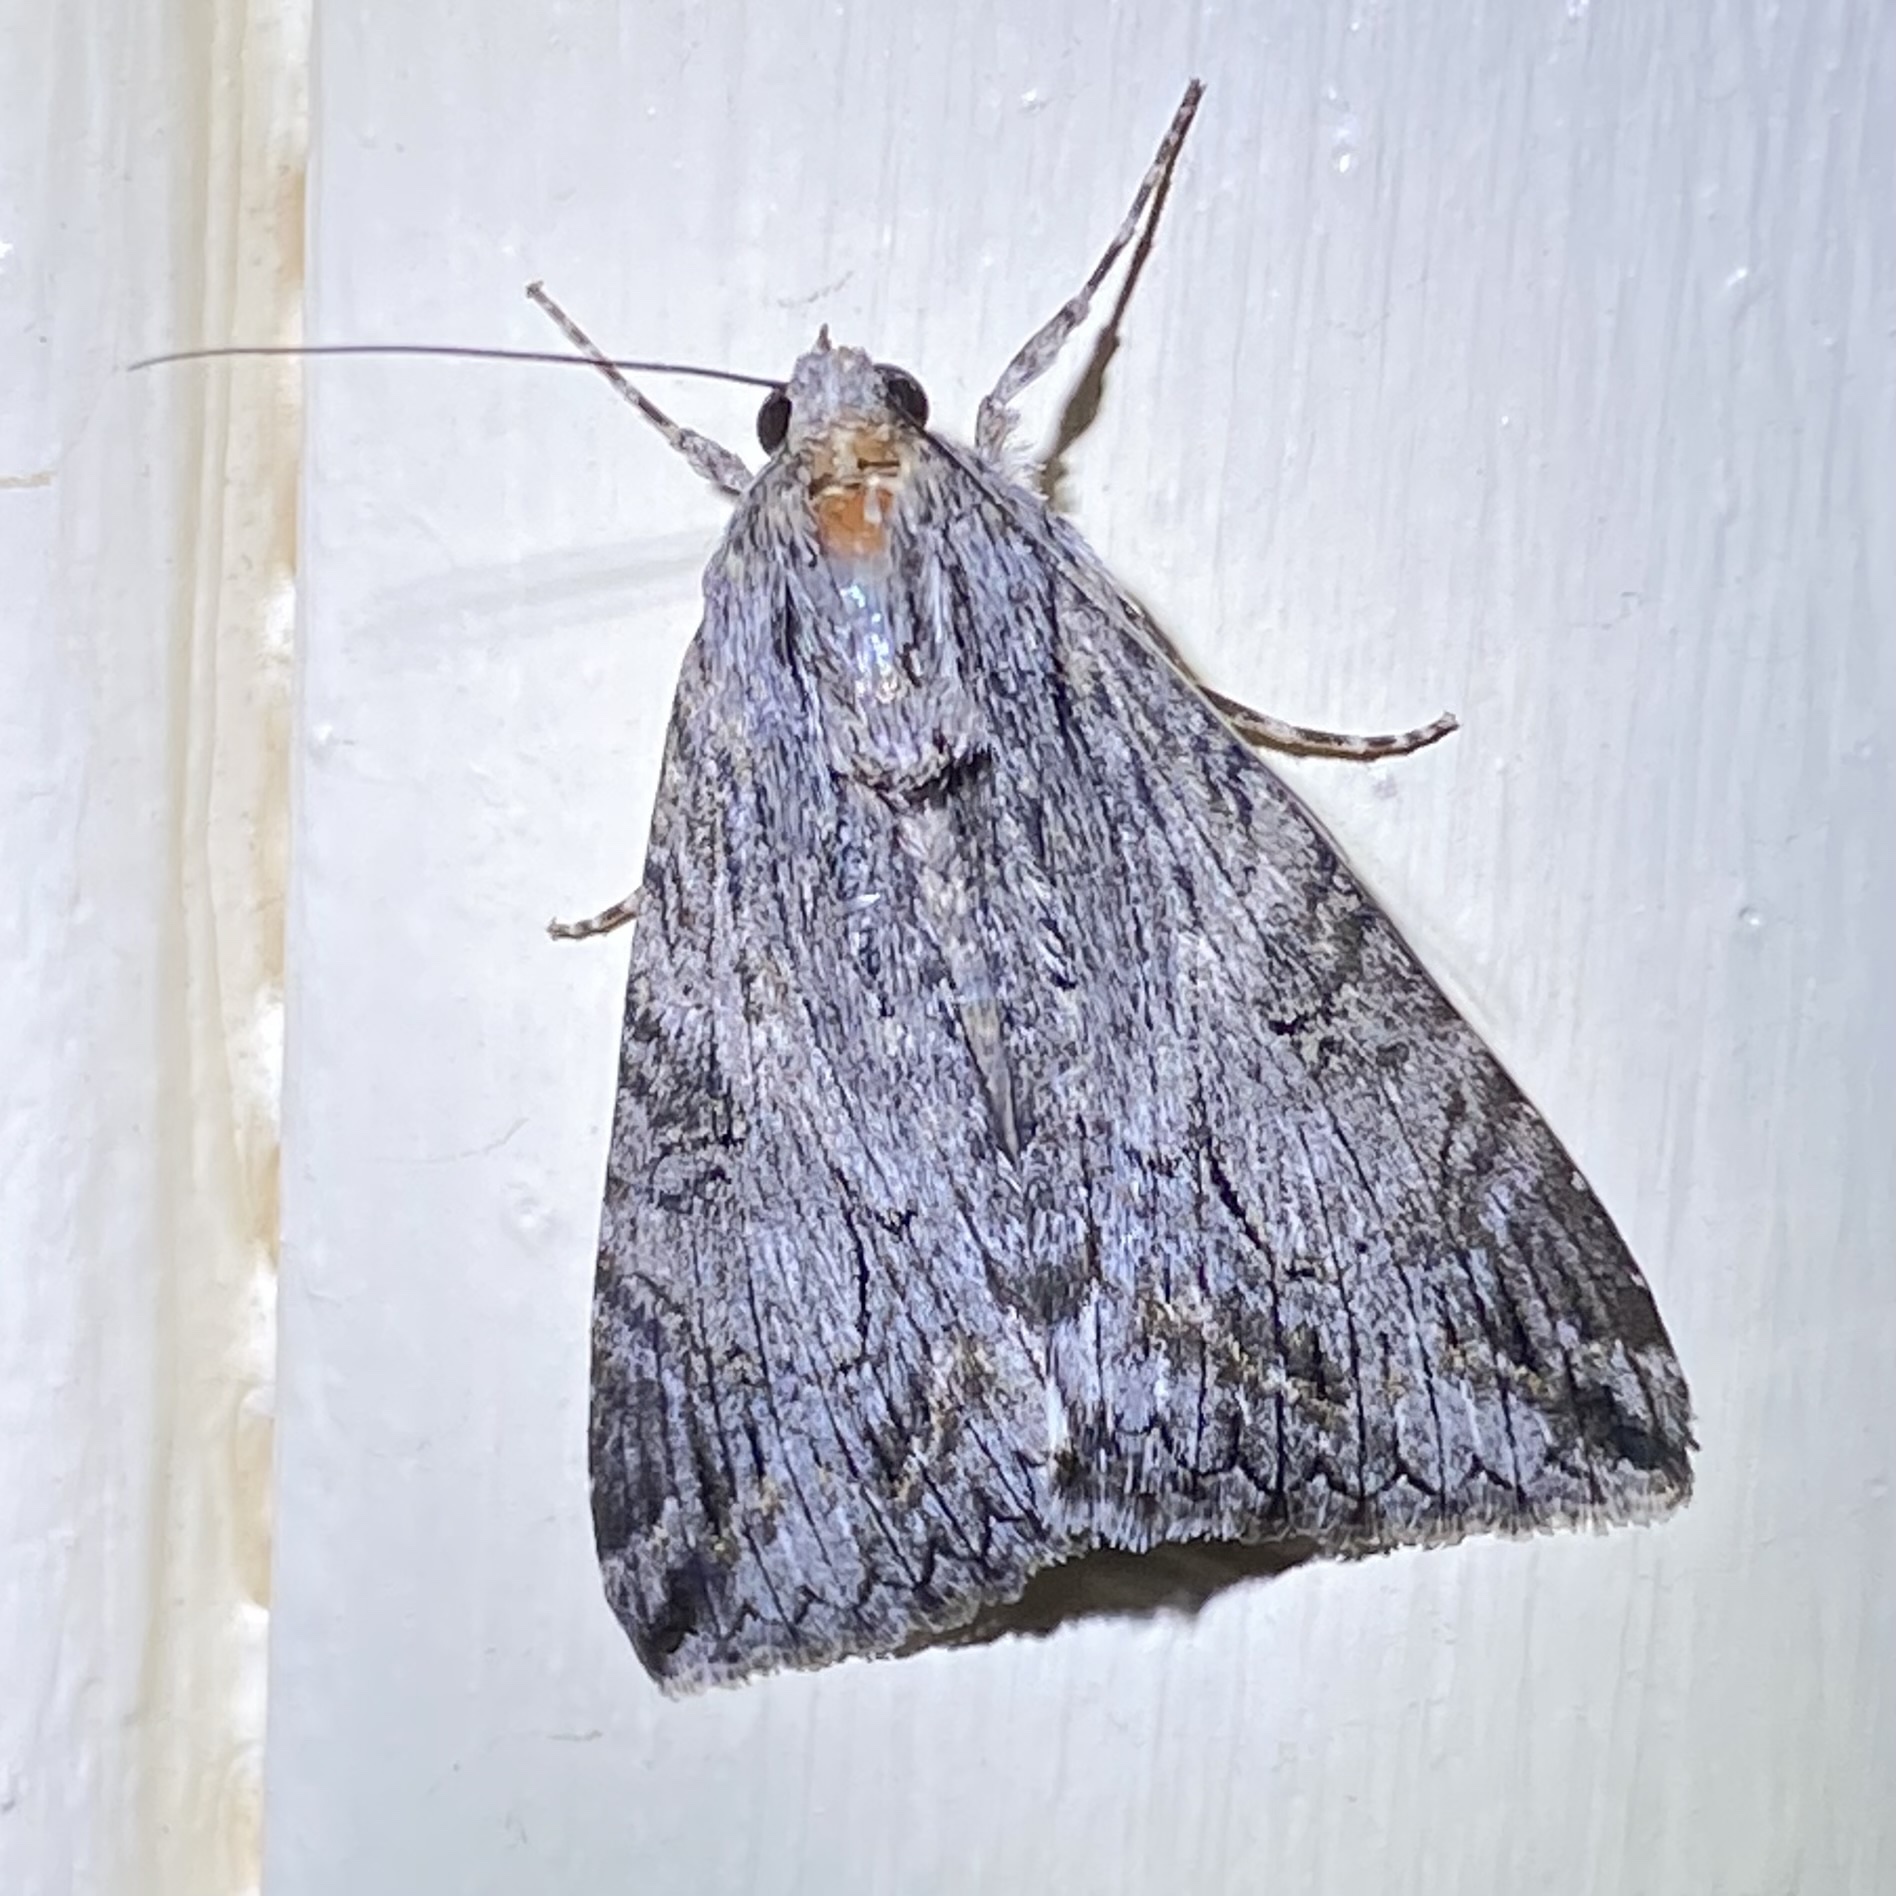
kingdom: Animalia
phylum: Arthropoda
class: Insecta
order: Lepidoptera
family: Erebidae
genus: Melipotis
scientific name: Melipotis jucunda
